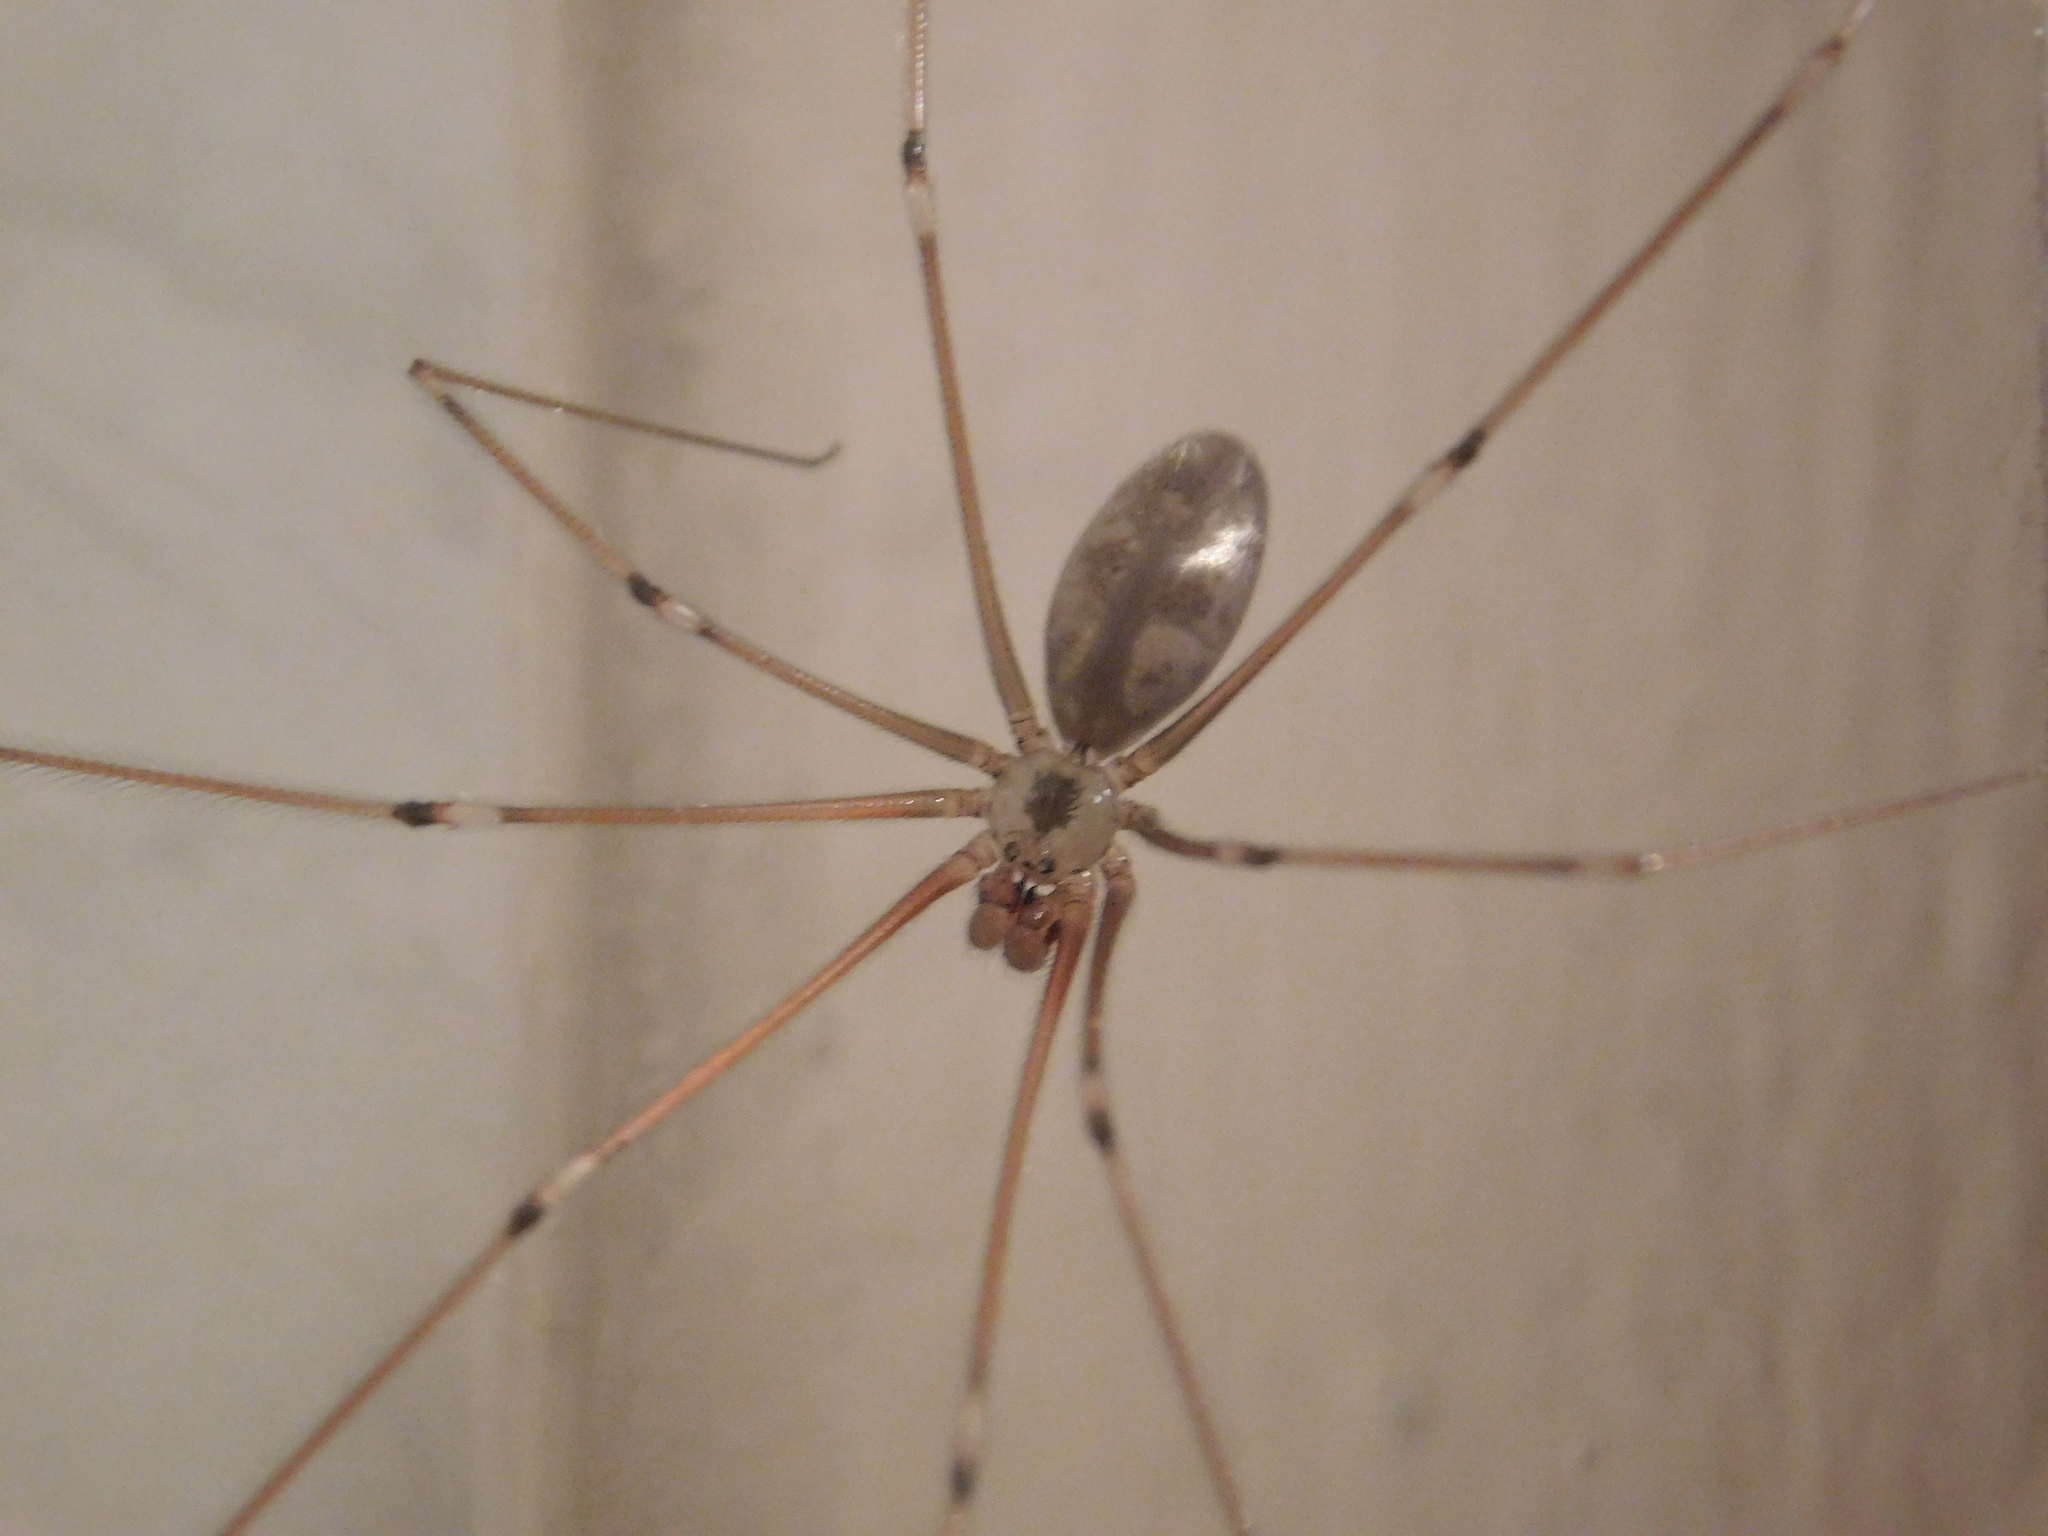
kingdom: Animalia
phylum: Arthropoda
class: Arachnida
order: Araneae
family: Pholcidae
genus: Pholcus
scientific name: Pholcus phalangioides
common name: Longbodied cellar spider
